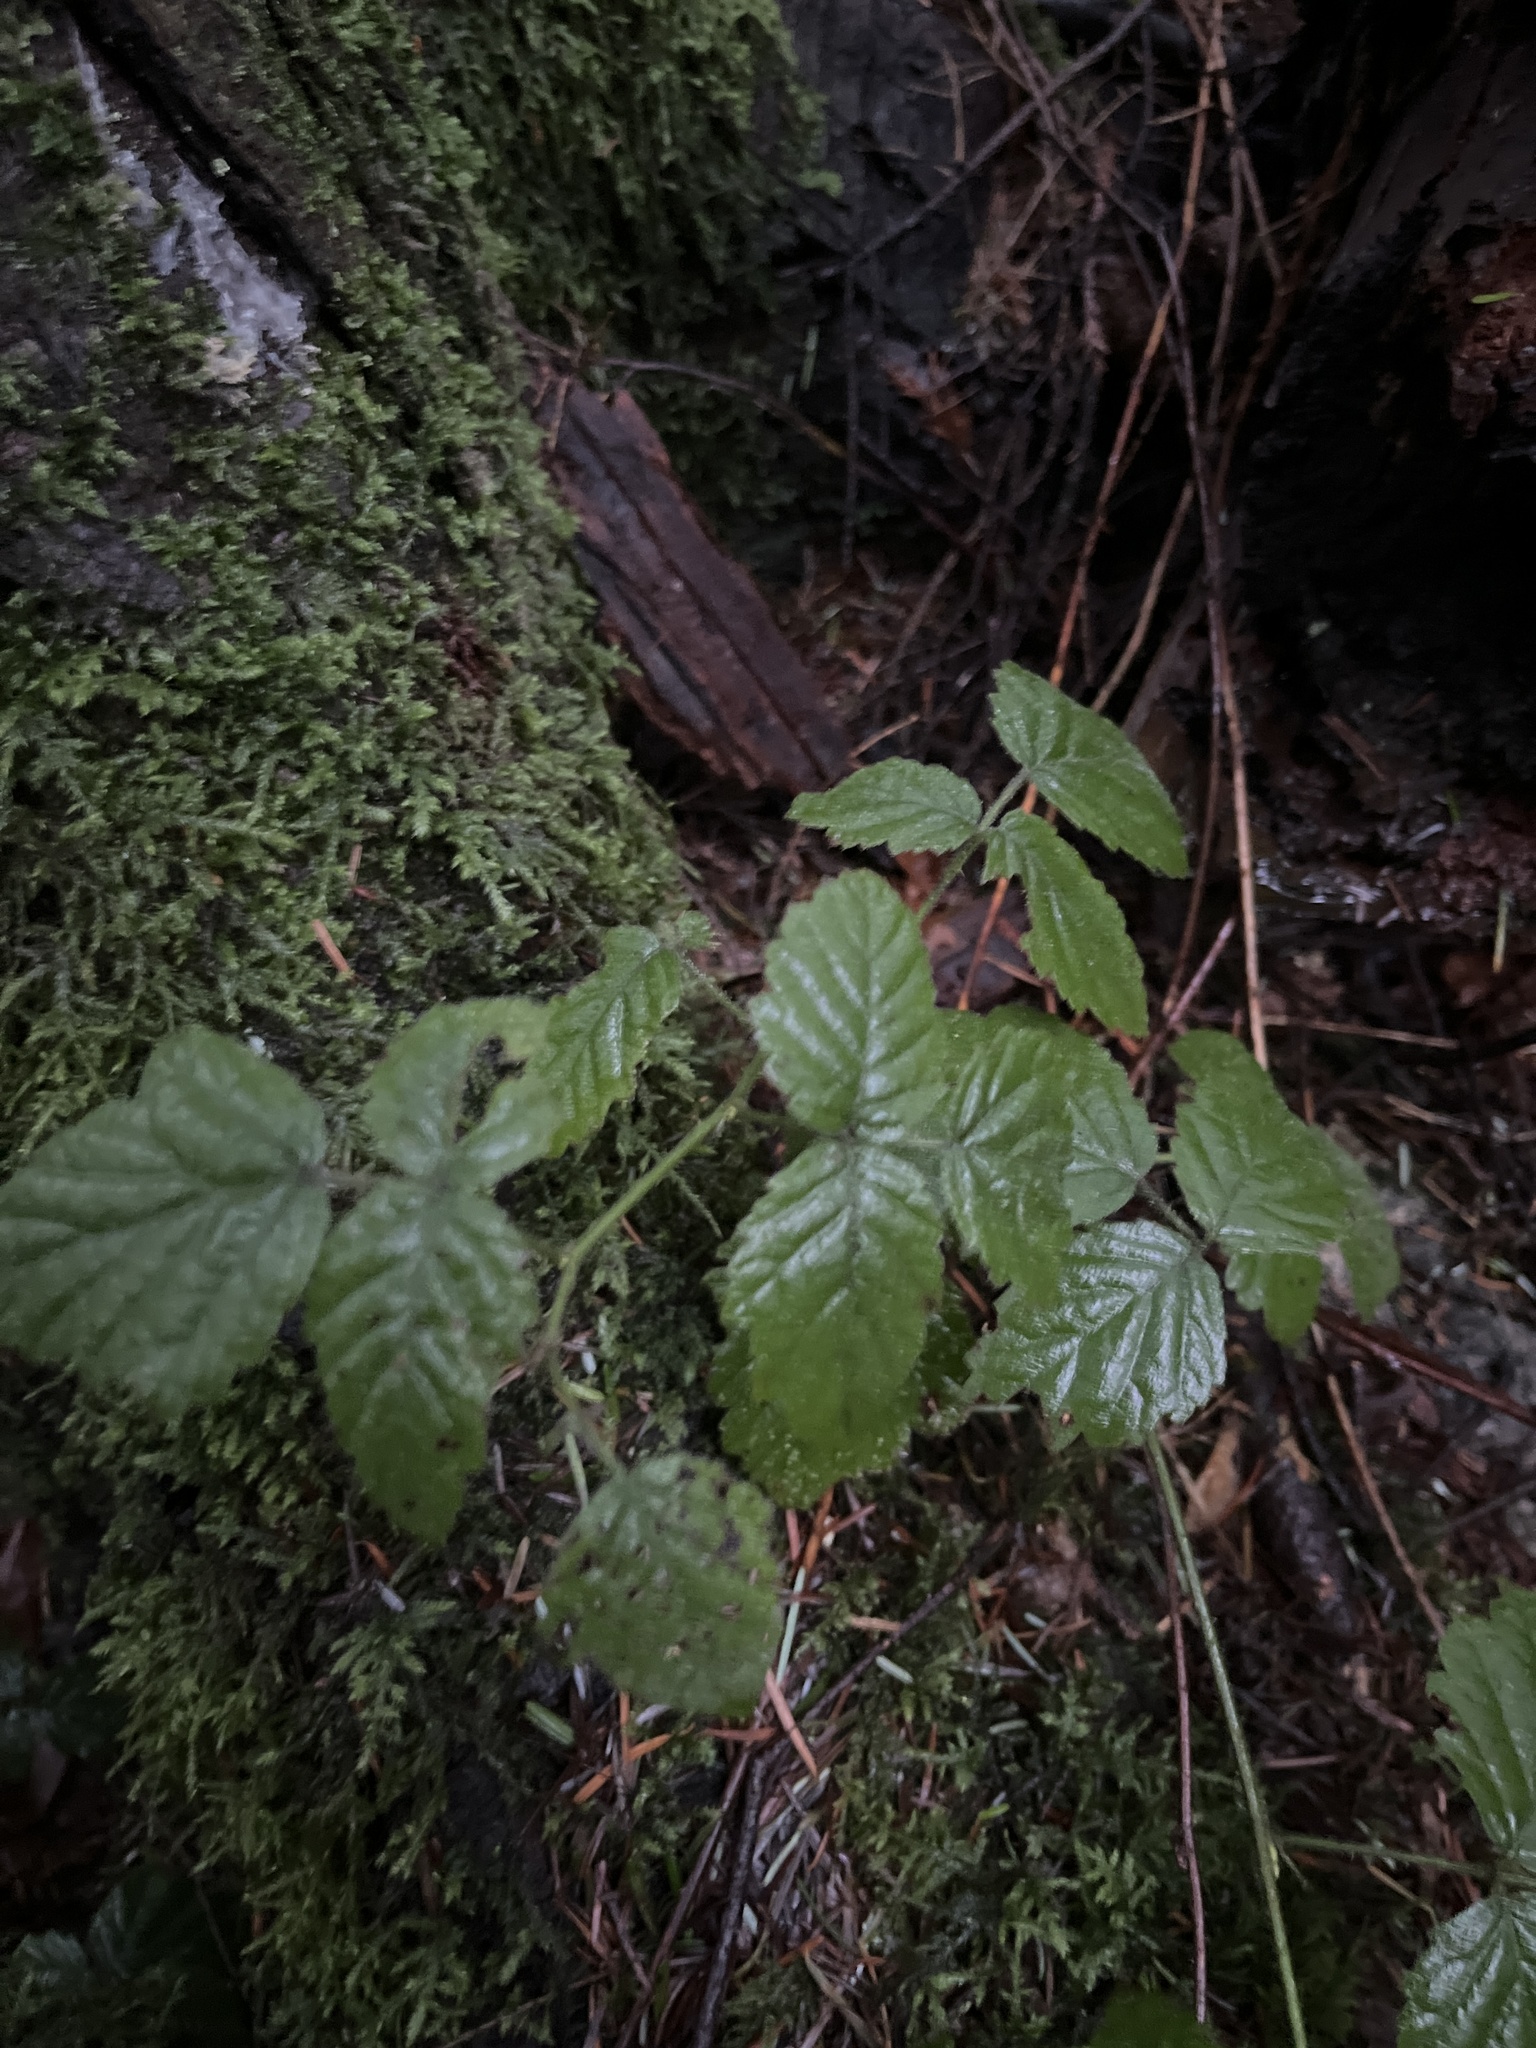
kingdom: Plantae
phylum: Tracheophyta
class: Magnoliopsida
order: Rosales
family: Rosaceae
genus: Rubus
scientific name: Rubus ursinus
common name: Pacific blackberry
